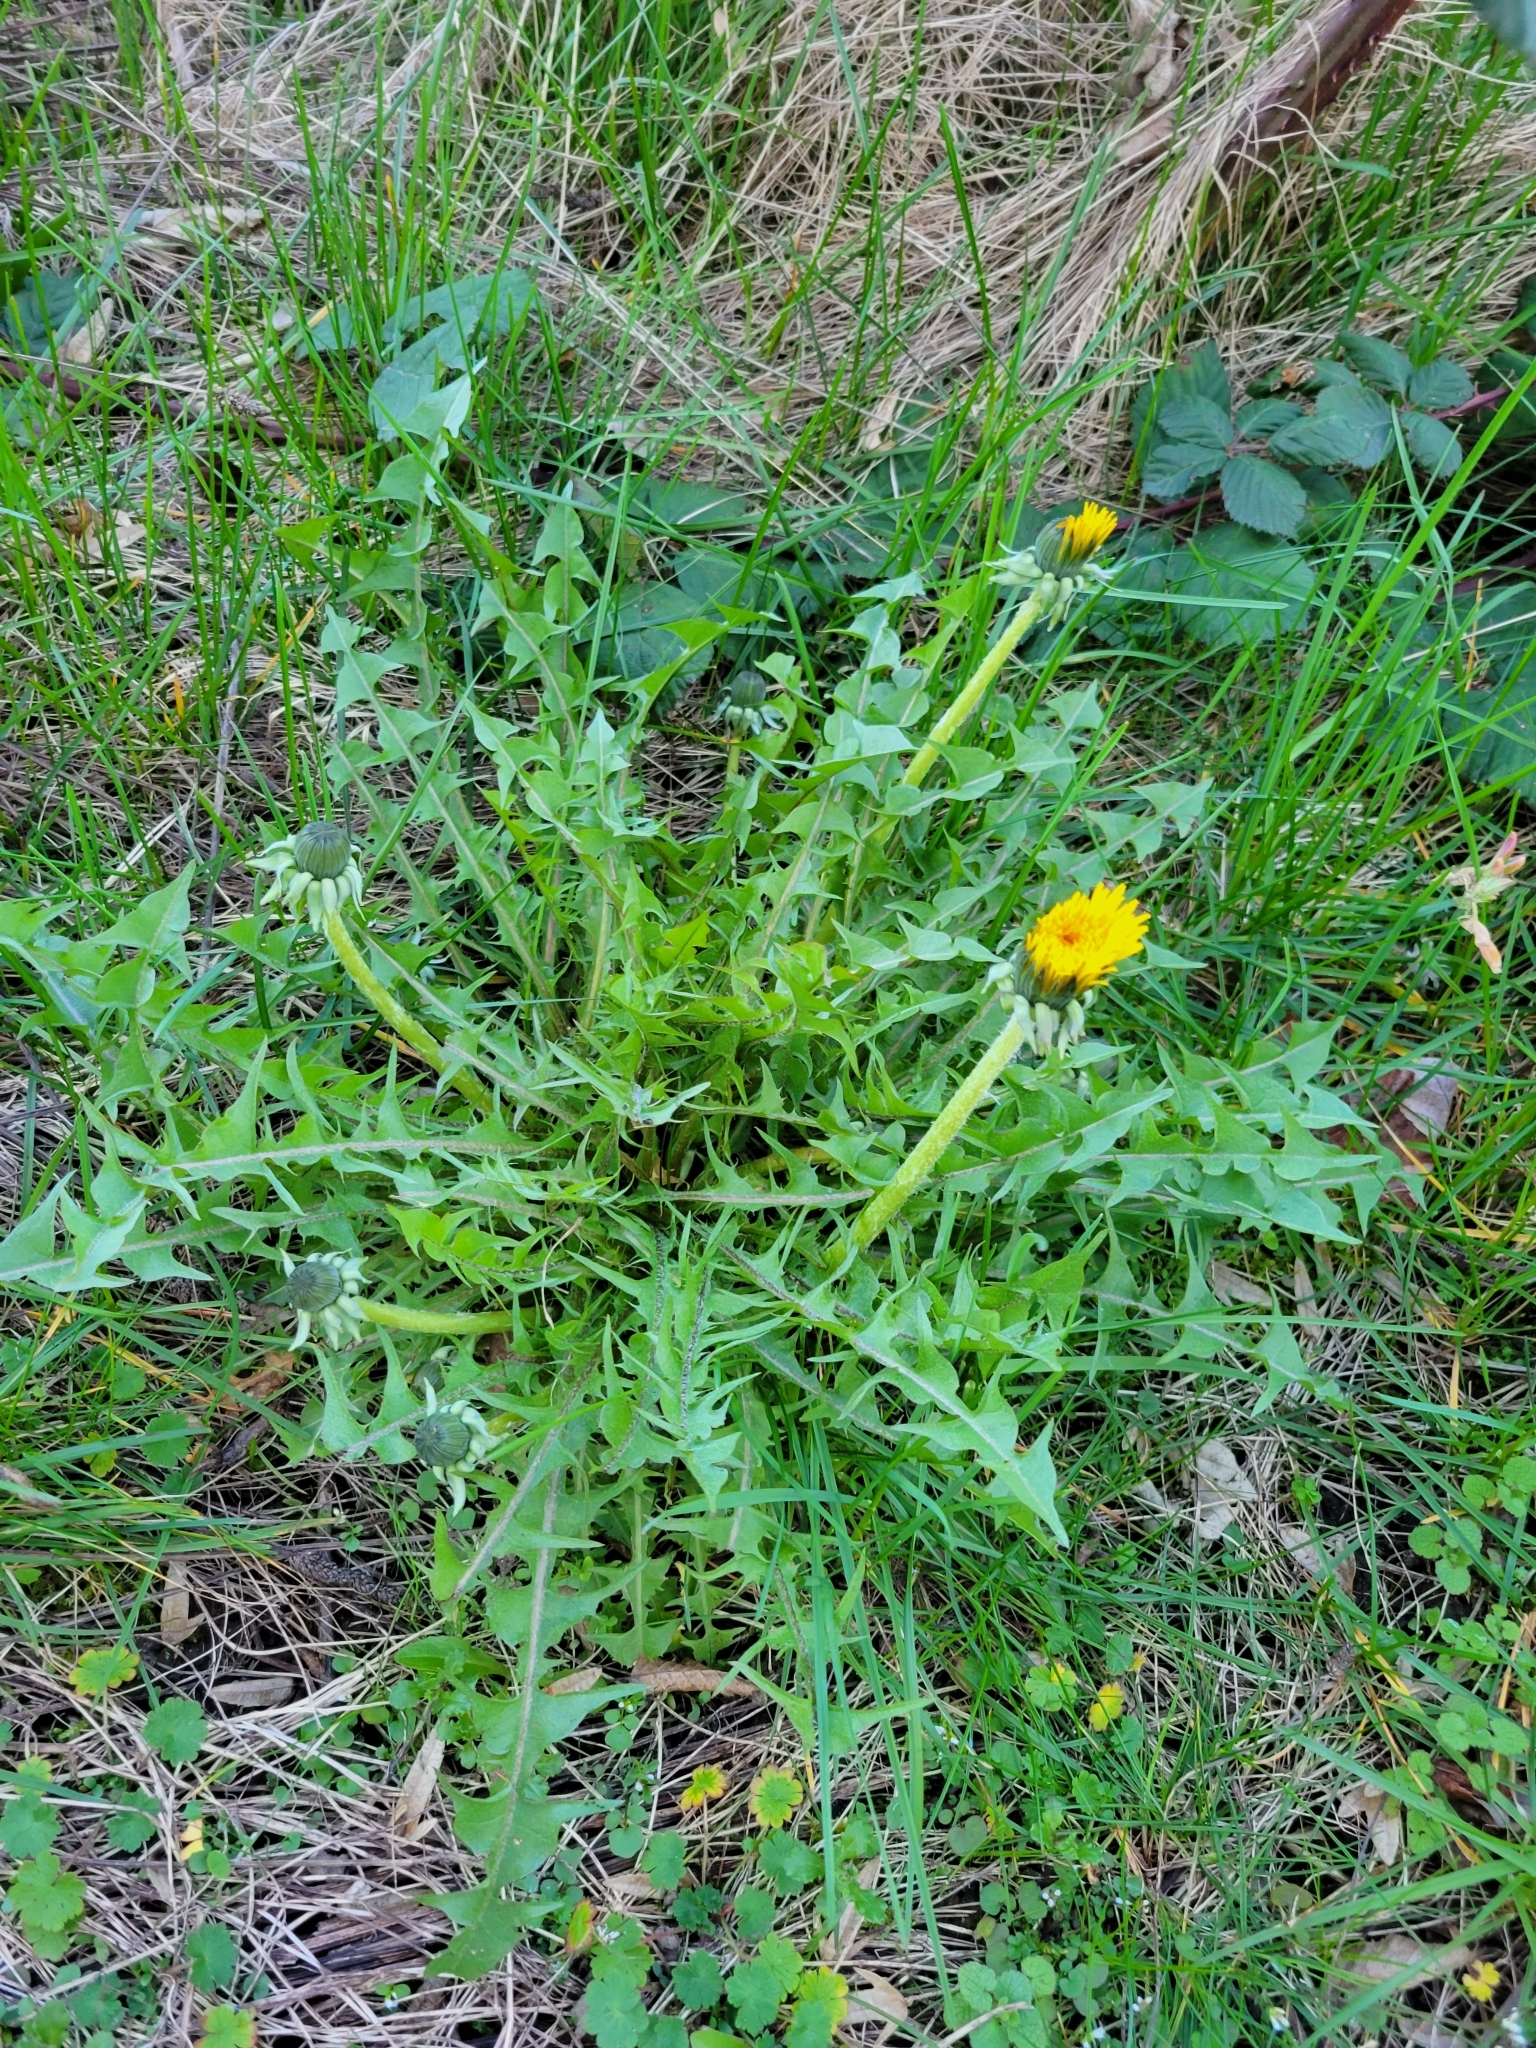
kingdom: Plantae
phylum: Tracheophyta
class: Magnoliopsida
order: Asterales
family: Asteraceae
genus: Taraxacum
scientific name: Taraxacum officinale
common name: Common dandelion
